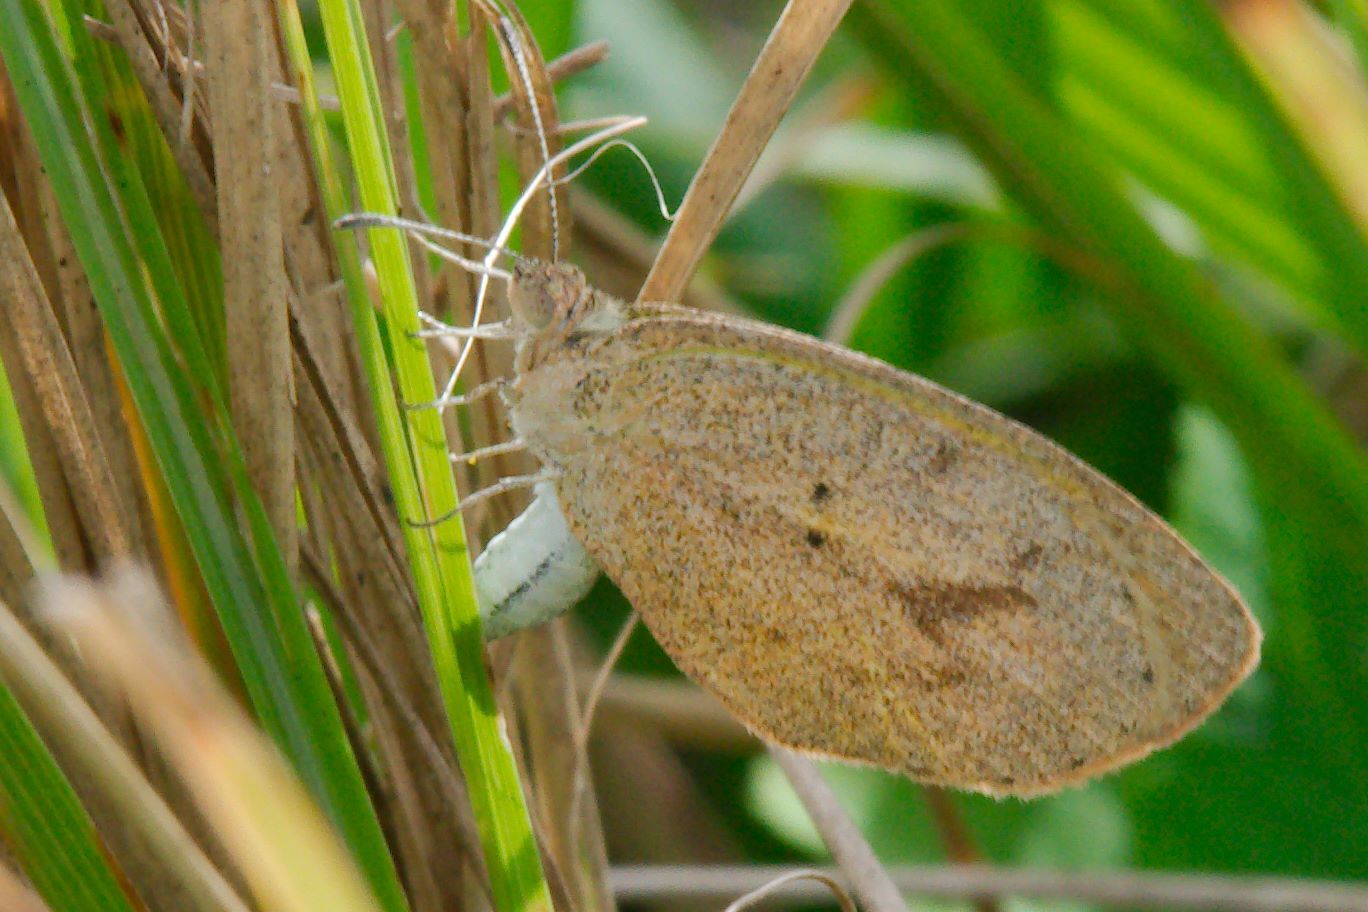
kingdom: Animalia
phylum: Arthropoda
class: Insecta
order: Lepidoptera
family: Pieridae
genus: Eurema
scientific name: Eurema daira
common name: Barred sulphur
